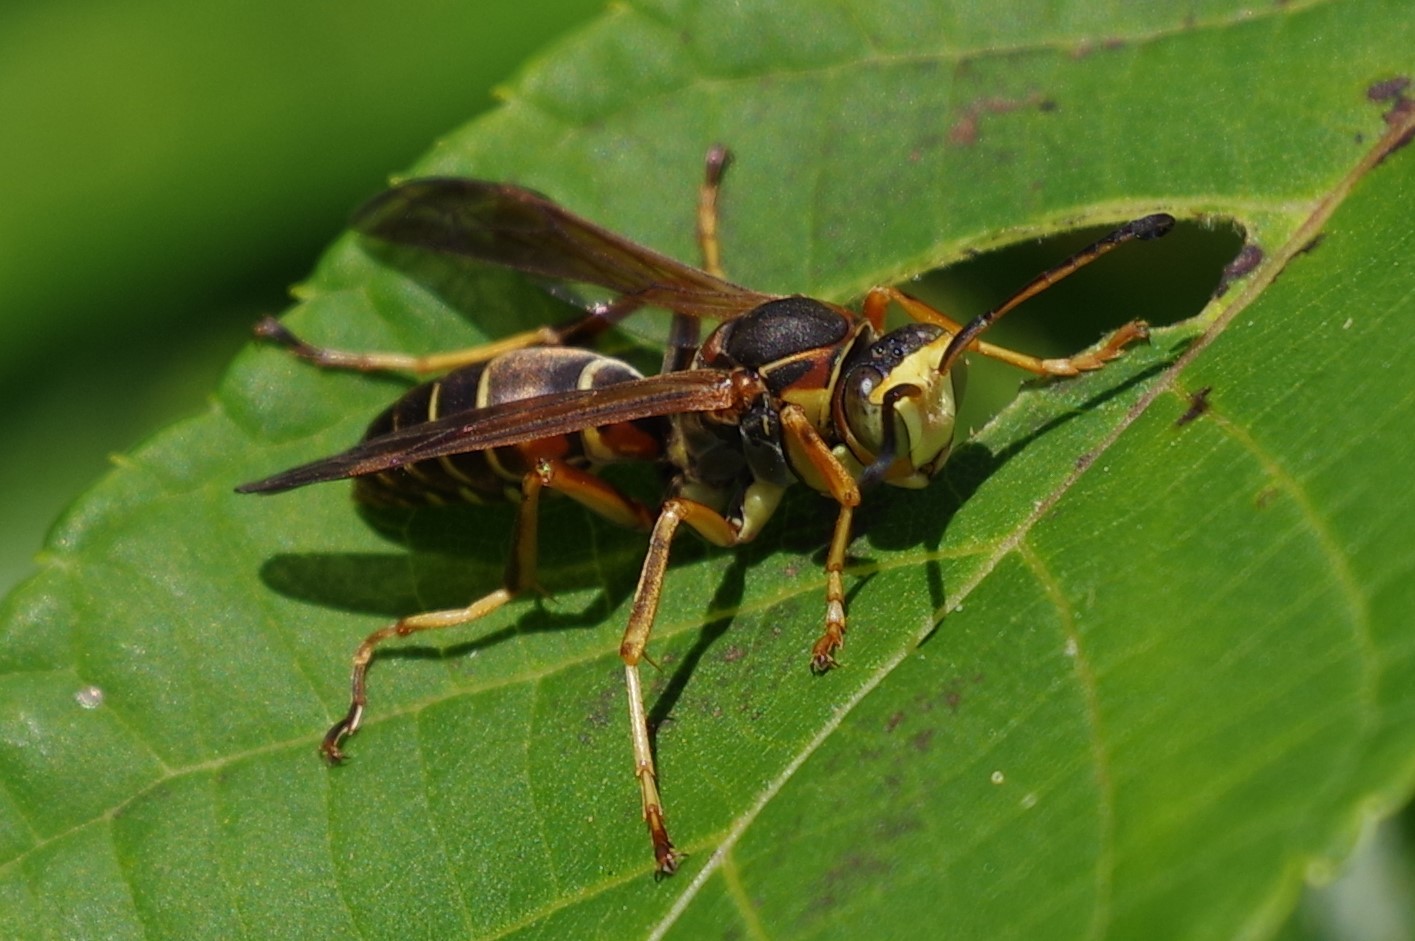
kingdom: Animalia
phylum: Arthropoda
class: Insecta
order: Hymenoptera
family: Eumenidae
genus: Polistes
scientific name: Polistes fuscatus
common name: Dark paper wasp
